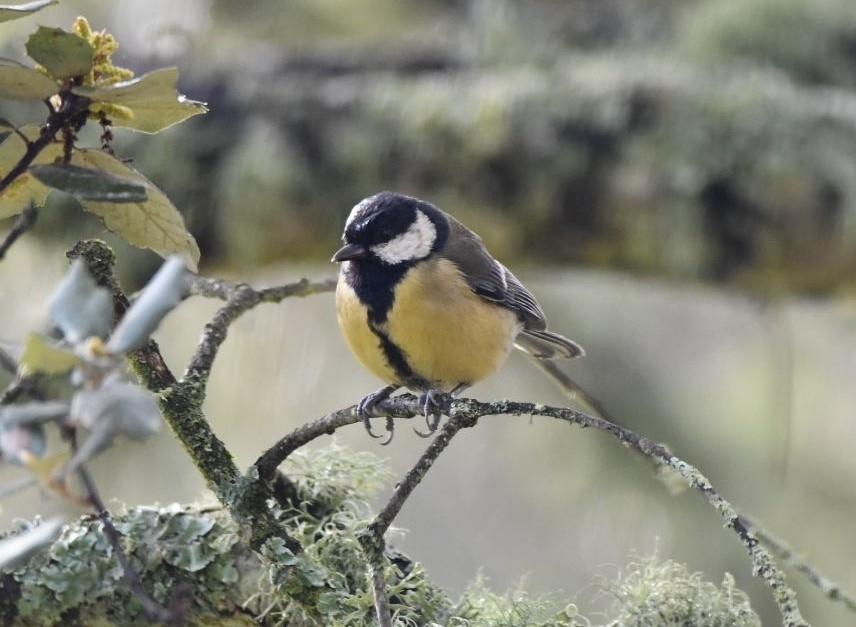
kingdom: Animalia
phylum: Chordata
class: Aves
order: Passeriformes
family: Paridae
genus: Parus
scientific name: Parus major
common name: Great tit
